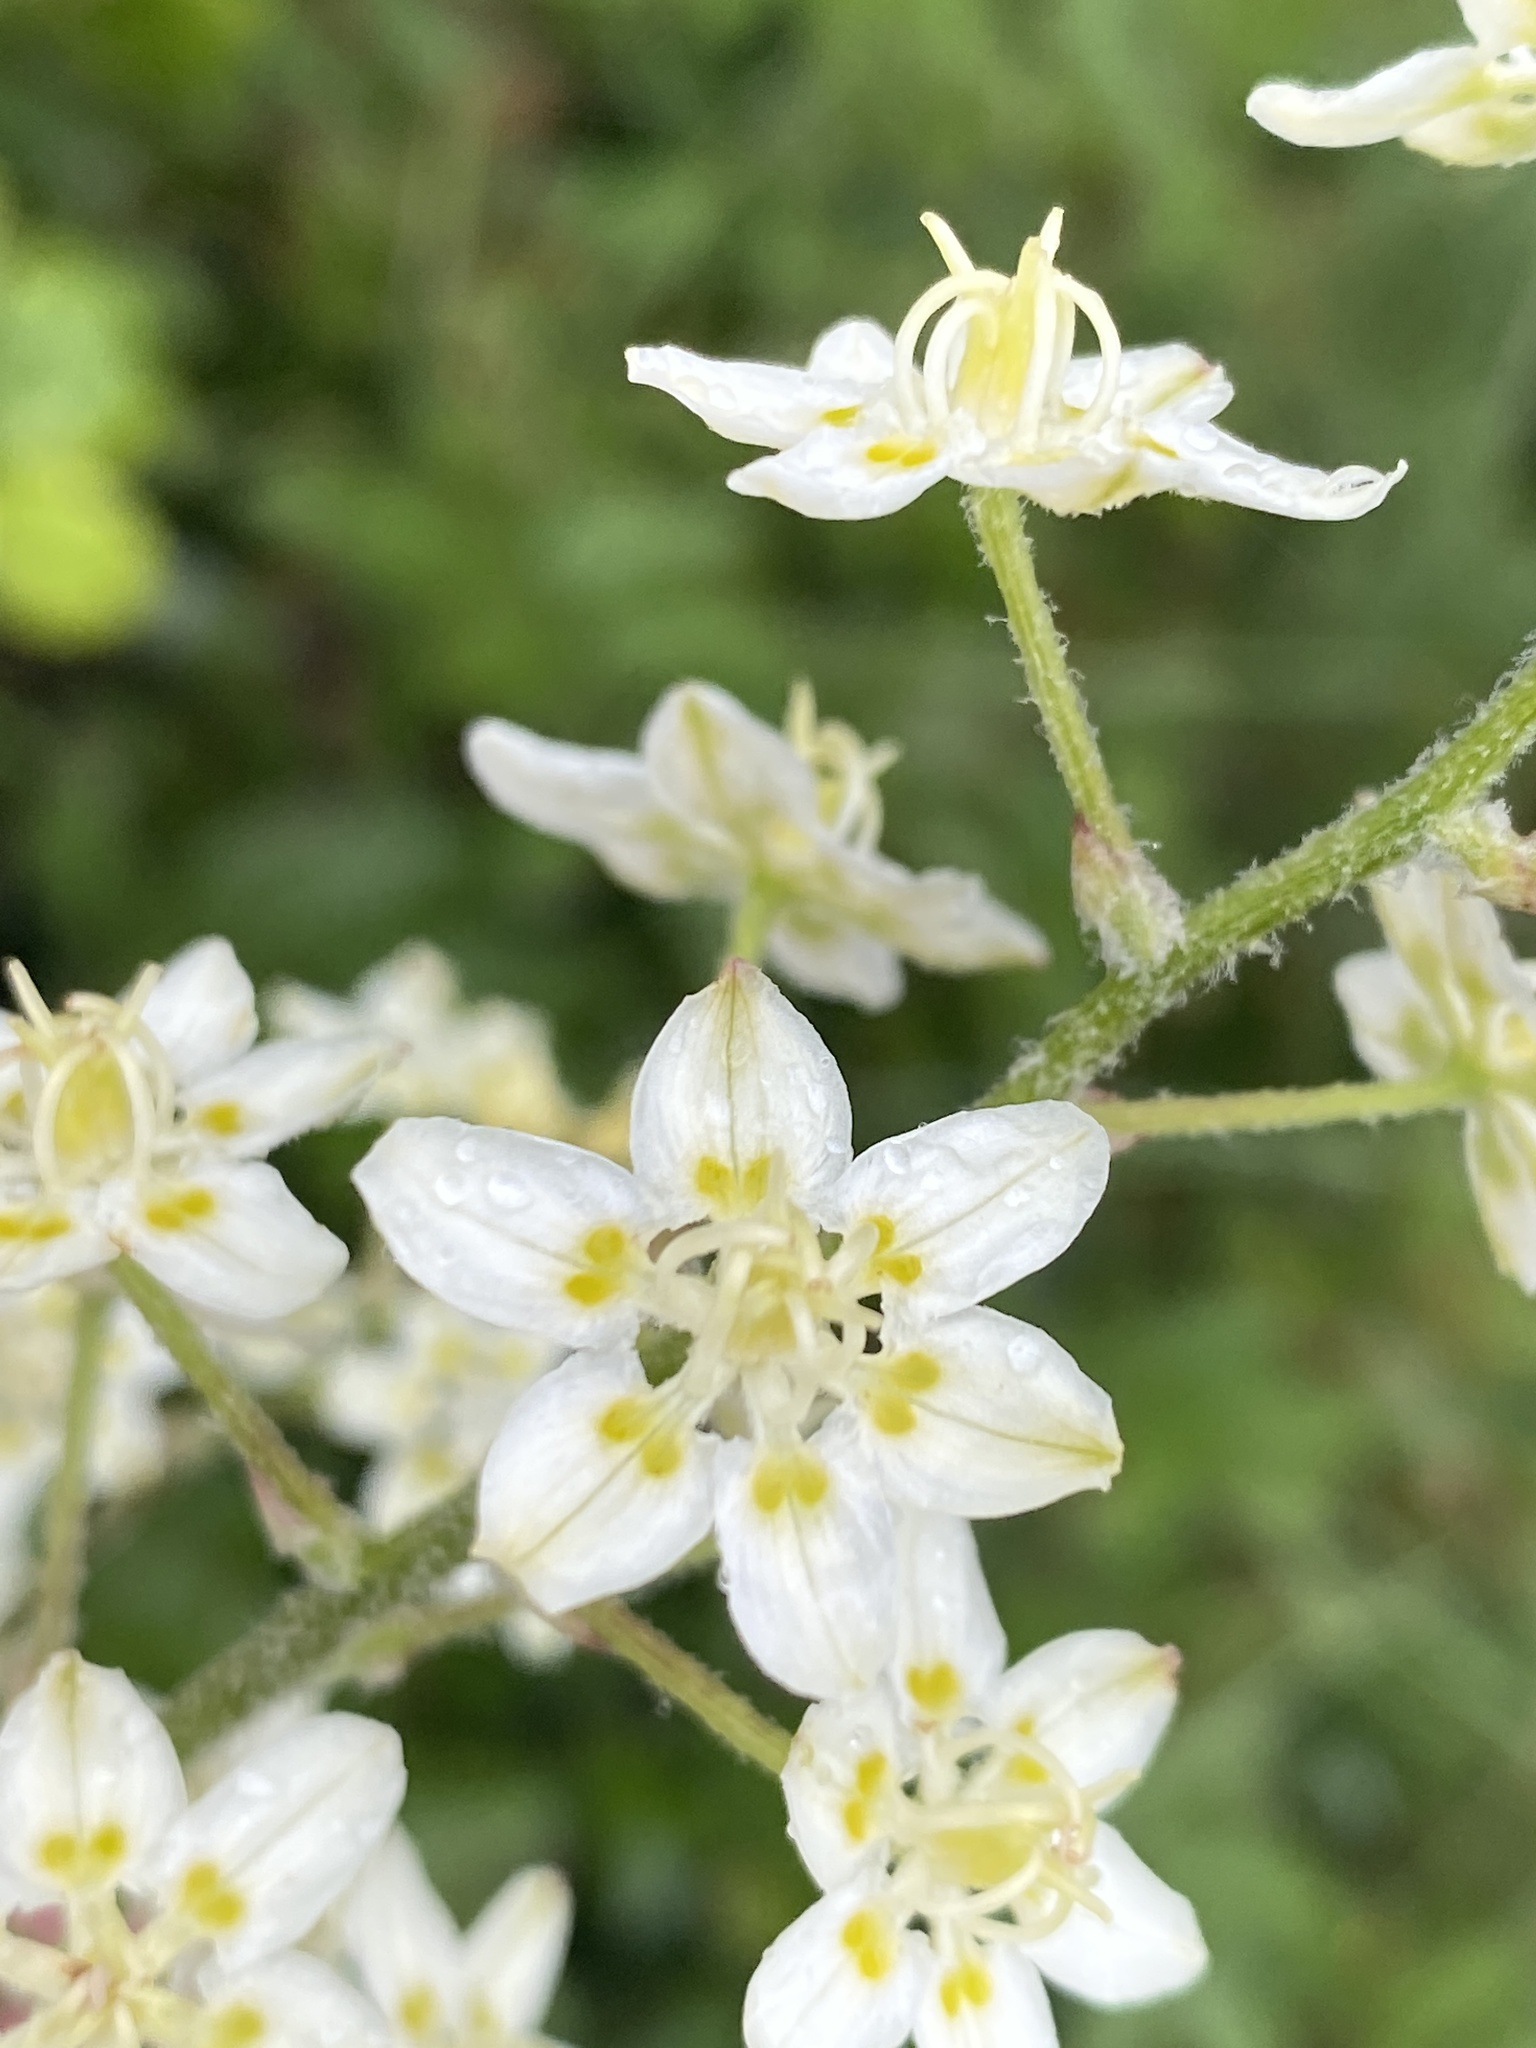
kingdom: Plantae
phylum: Tracheophyta
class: Liliopsida
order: Liliales
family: Melanthiaceae
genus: Melanthium
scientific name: Melanthium virginicum
